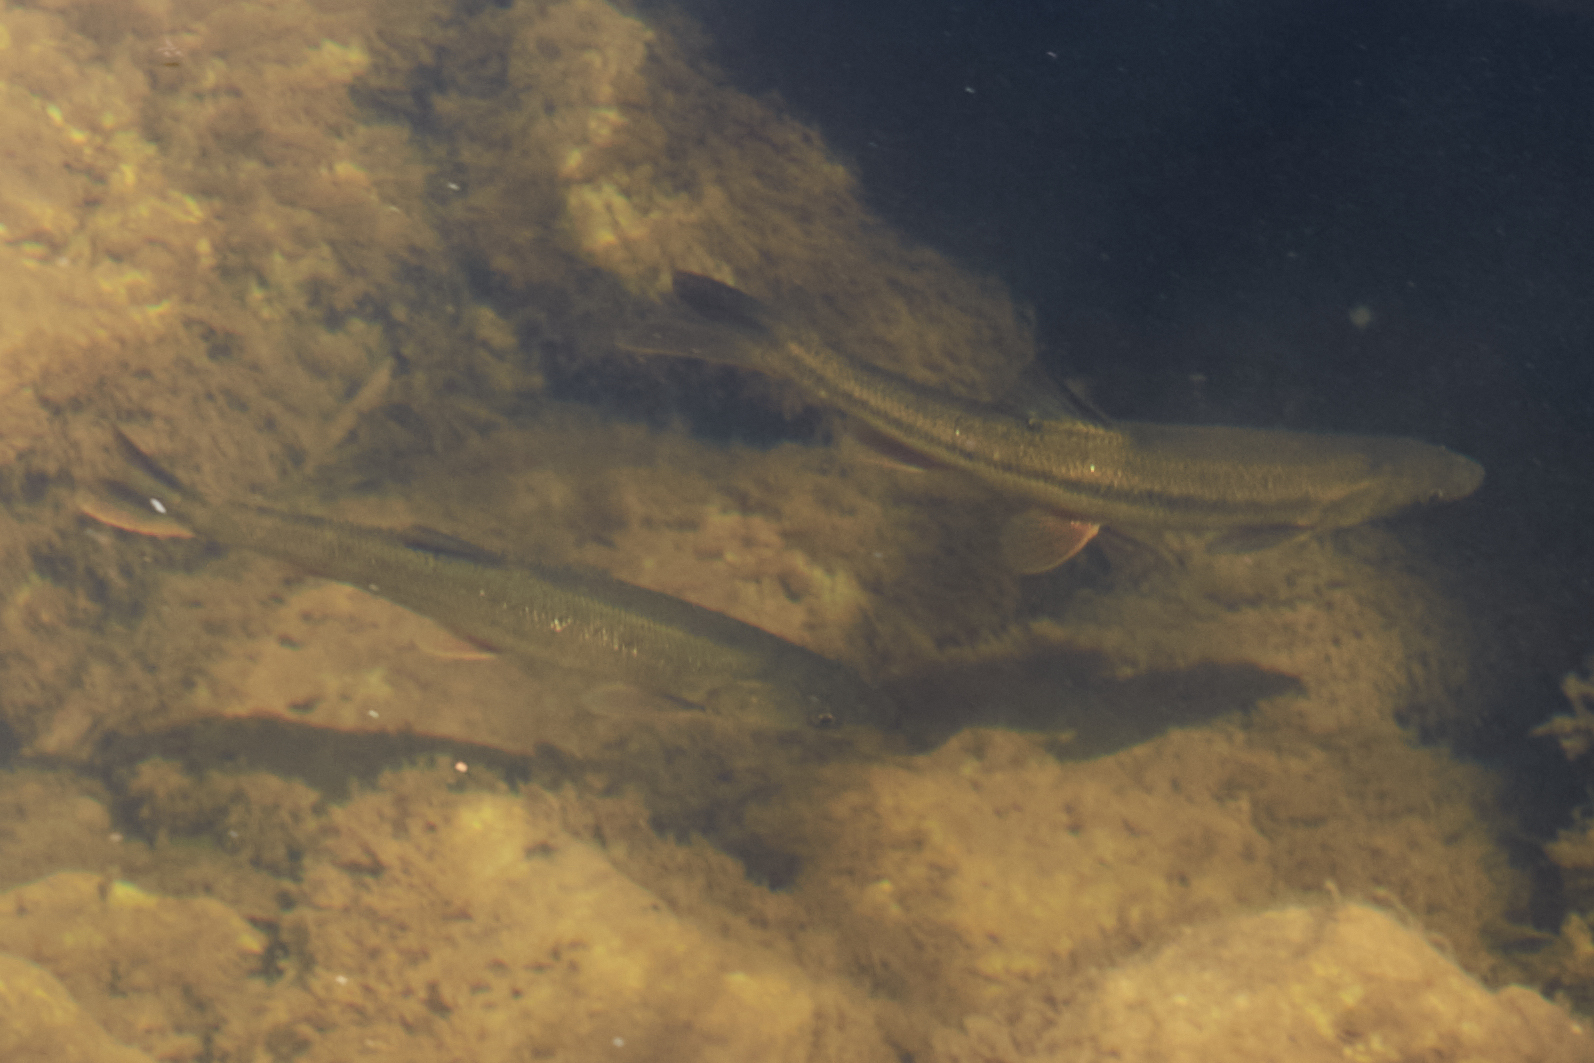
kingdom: Animalia
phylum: Chordata
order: Cypriniformes
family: Cyprinidae
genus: Ptychocheilus
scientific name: Ptychocheilus grandis
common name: Sacramento pikeminnow
